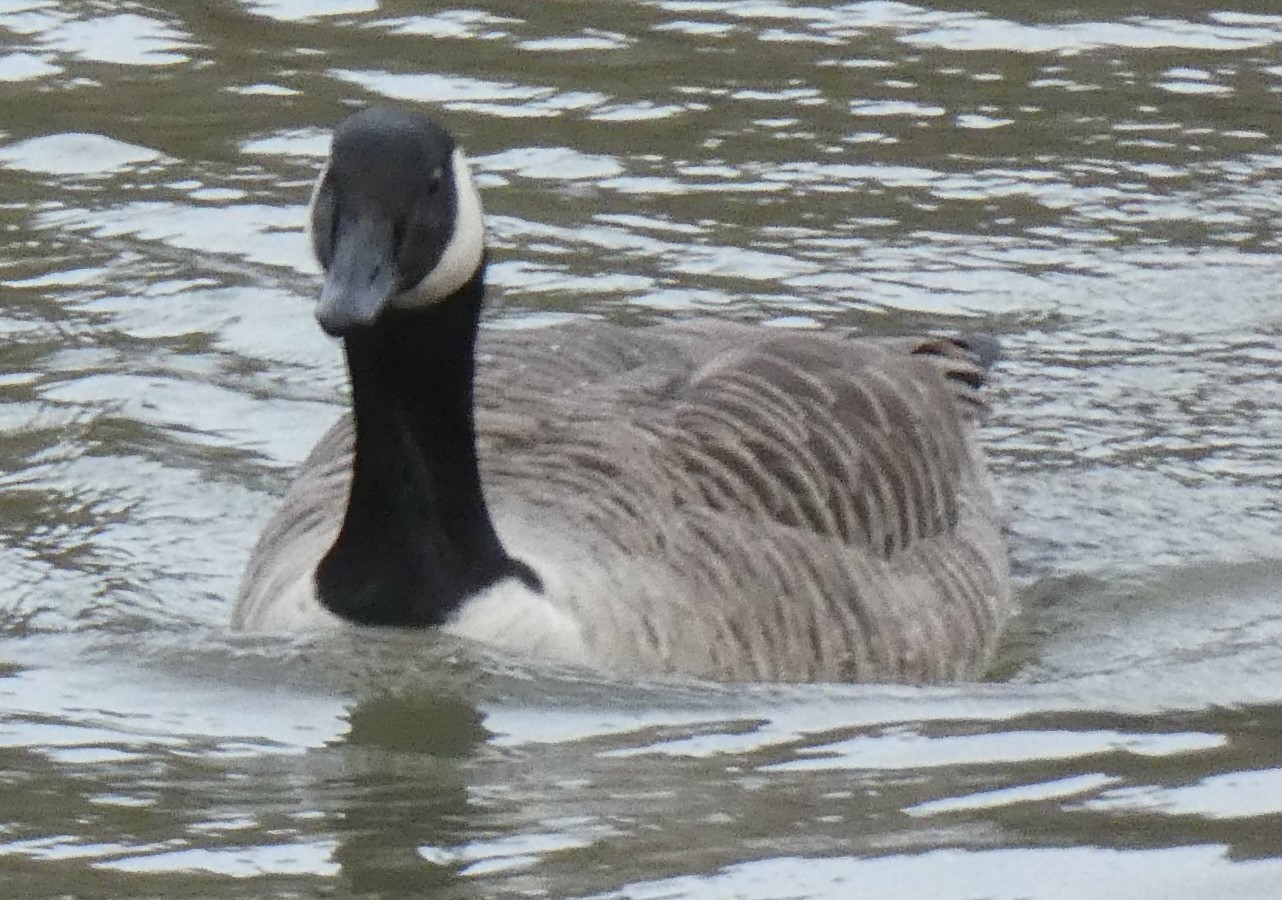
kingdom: Animalia
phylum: Chordata
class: Aves
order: Anseriformes
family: Anatidae
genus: Branta
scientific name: Branta canadensis
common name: Canada goose
